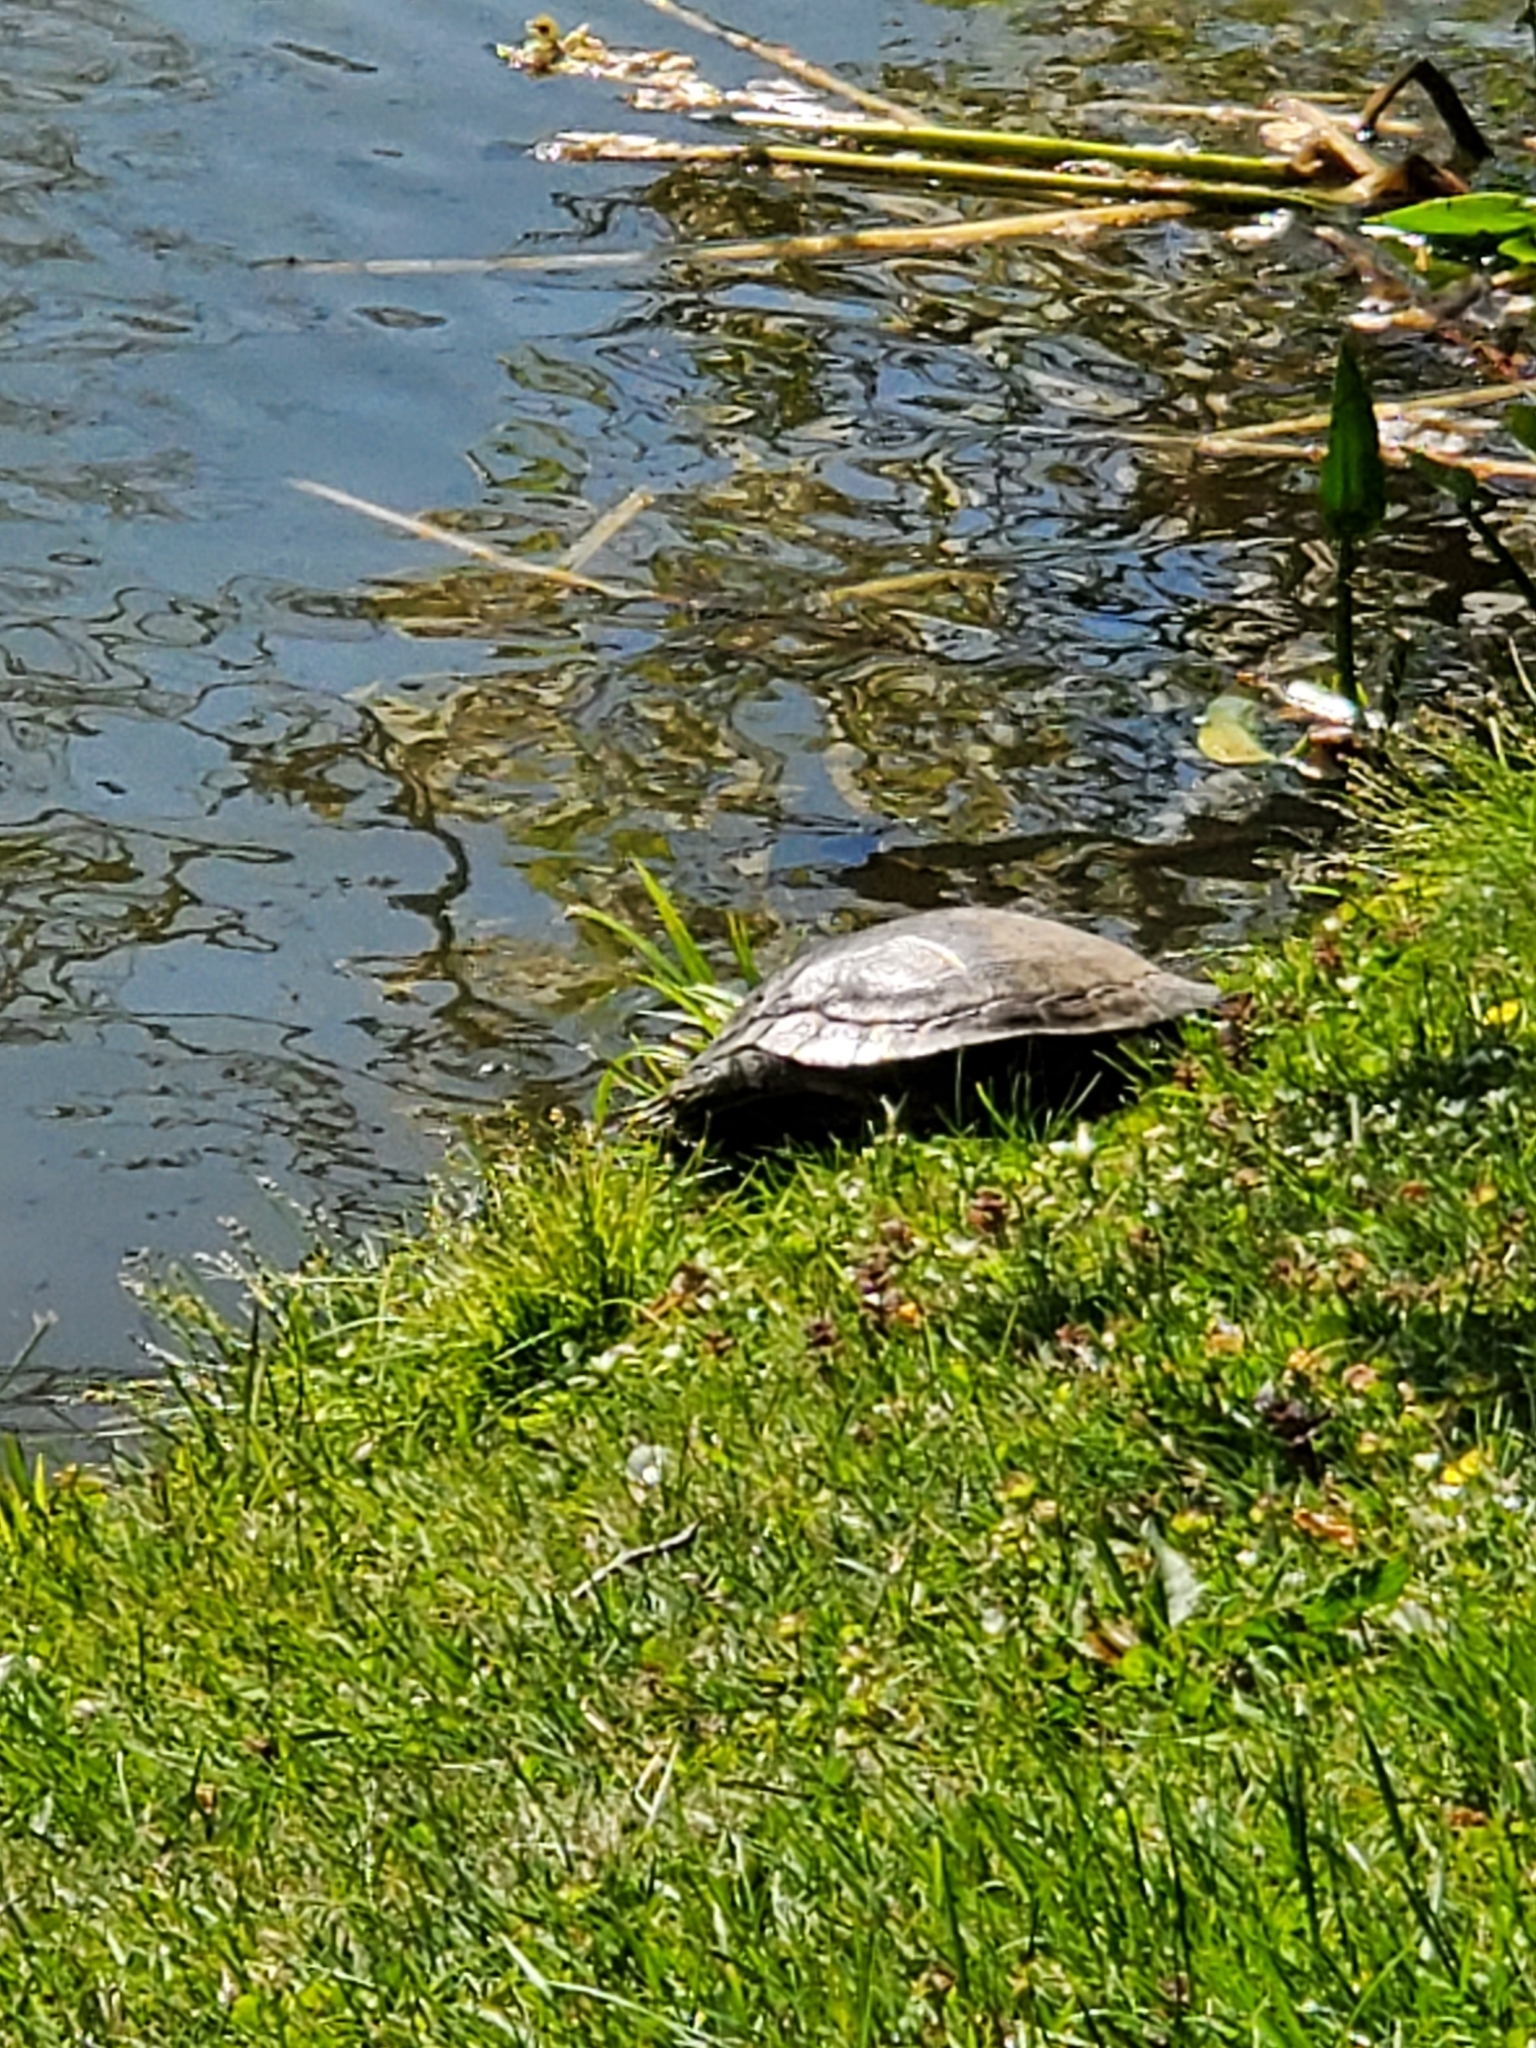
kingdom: Animalia
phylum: Chordata
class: Testudines
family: Emydidae
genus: Trachemys
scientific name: Trachemys scripta
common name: Slider
